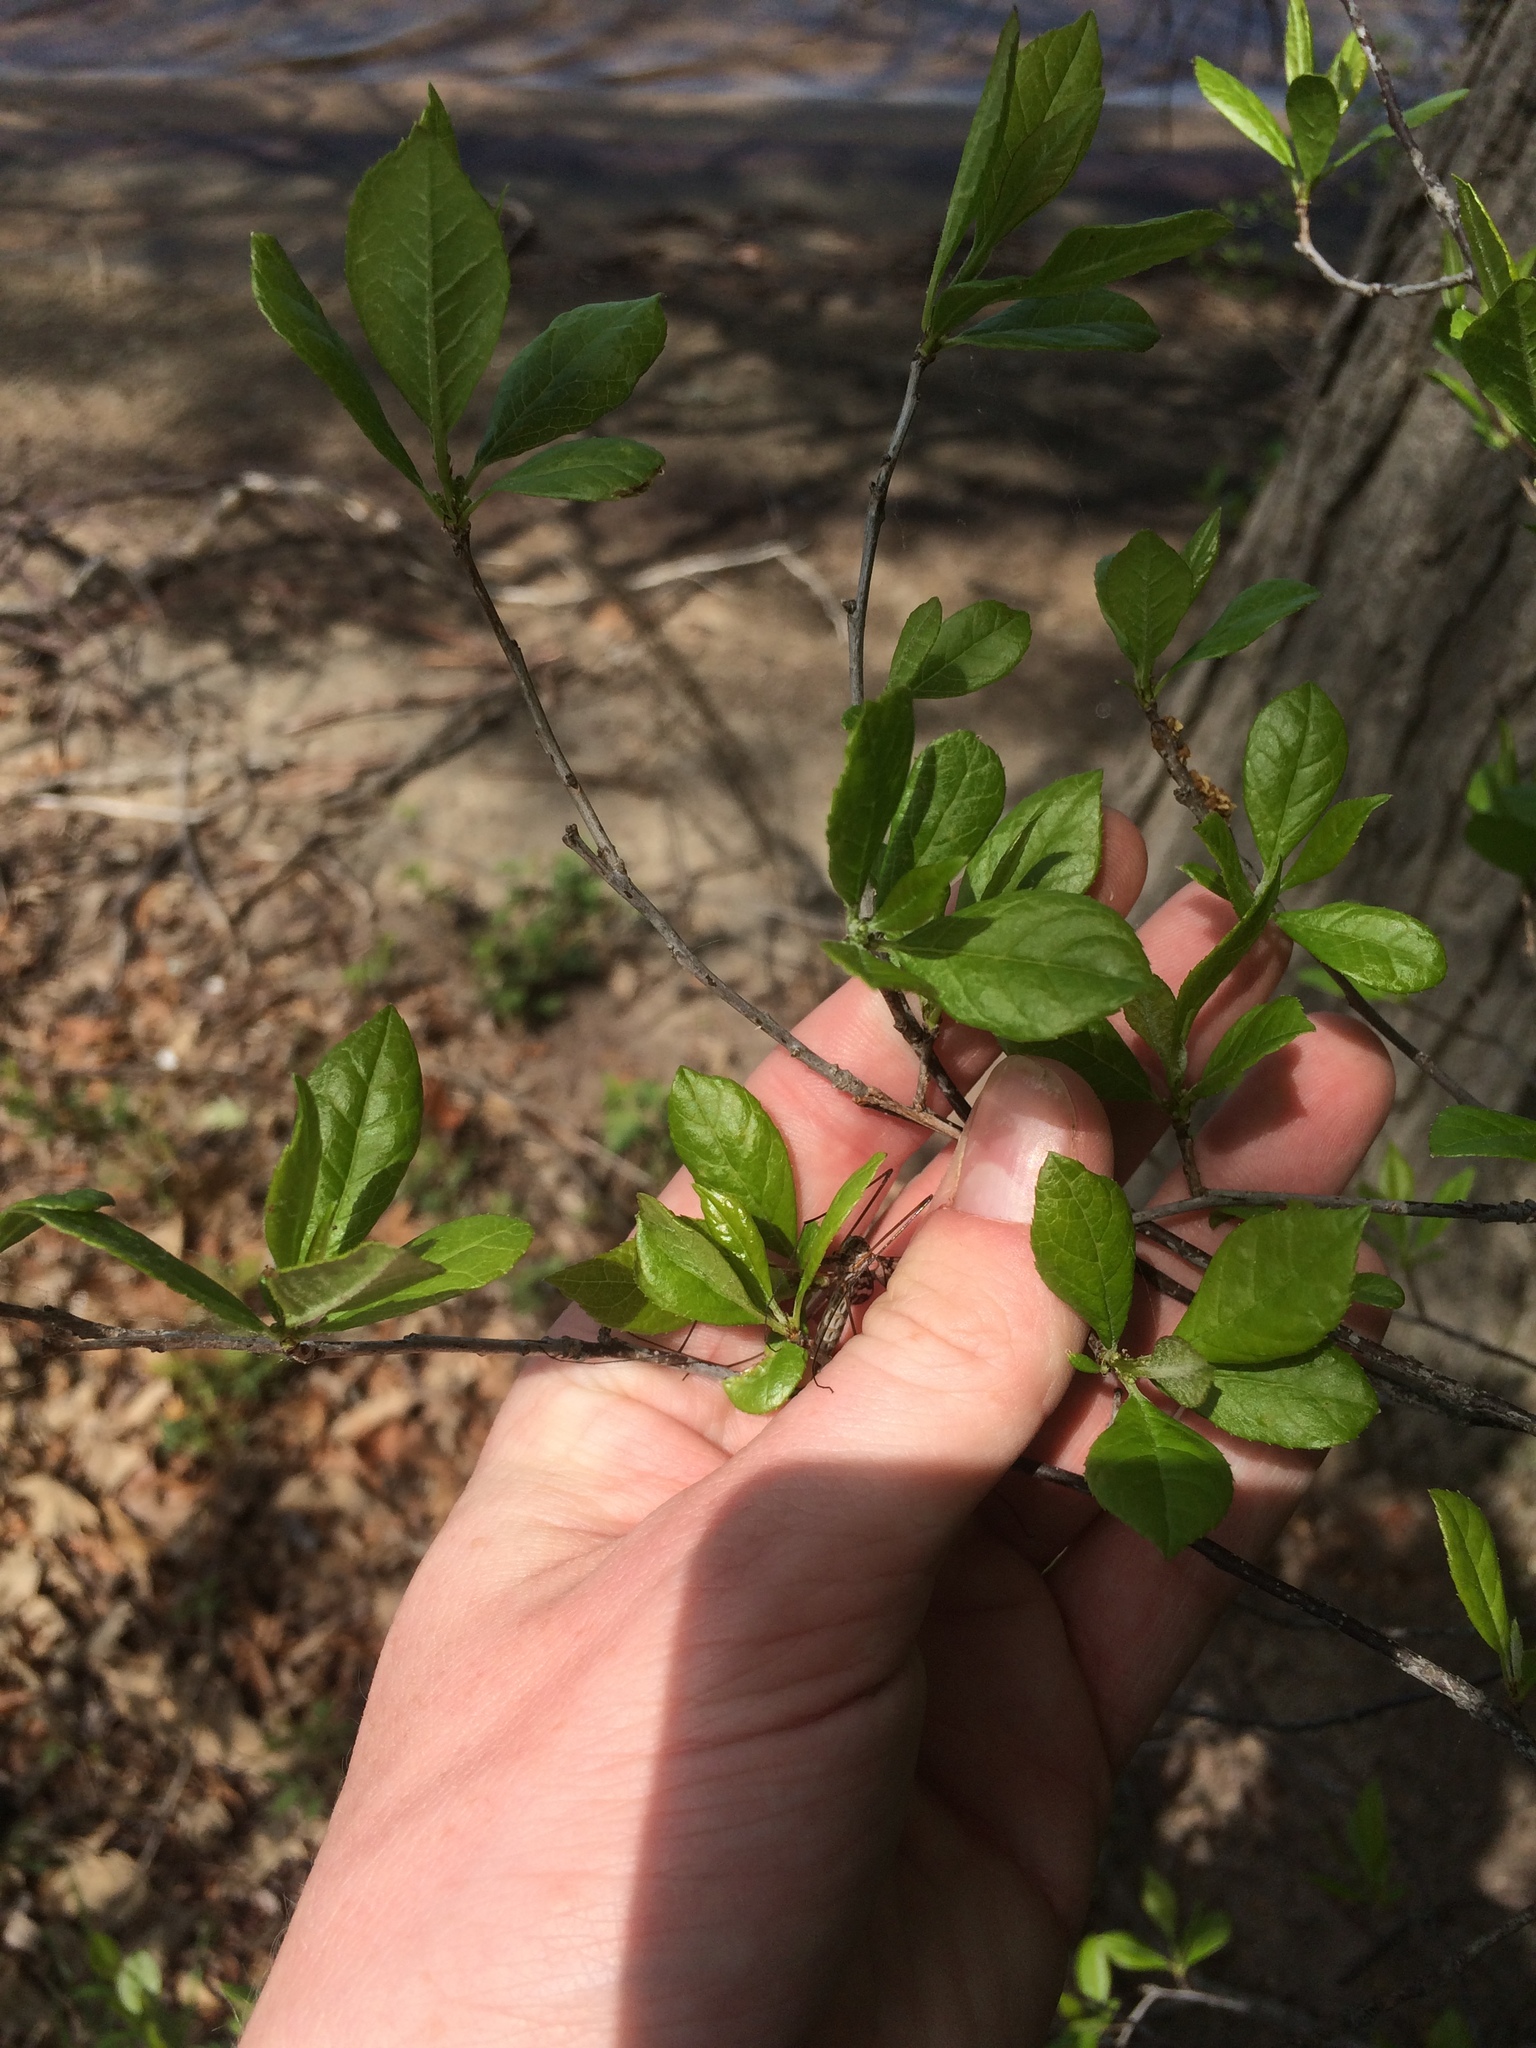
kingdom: Plantae
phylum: Tracheophyta
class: Magnoliopsida
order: Aquifoliales
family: Aquifoliaceae
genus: Ilex
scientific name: Ilex verticillata
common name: Virginia winterberry
